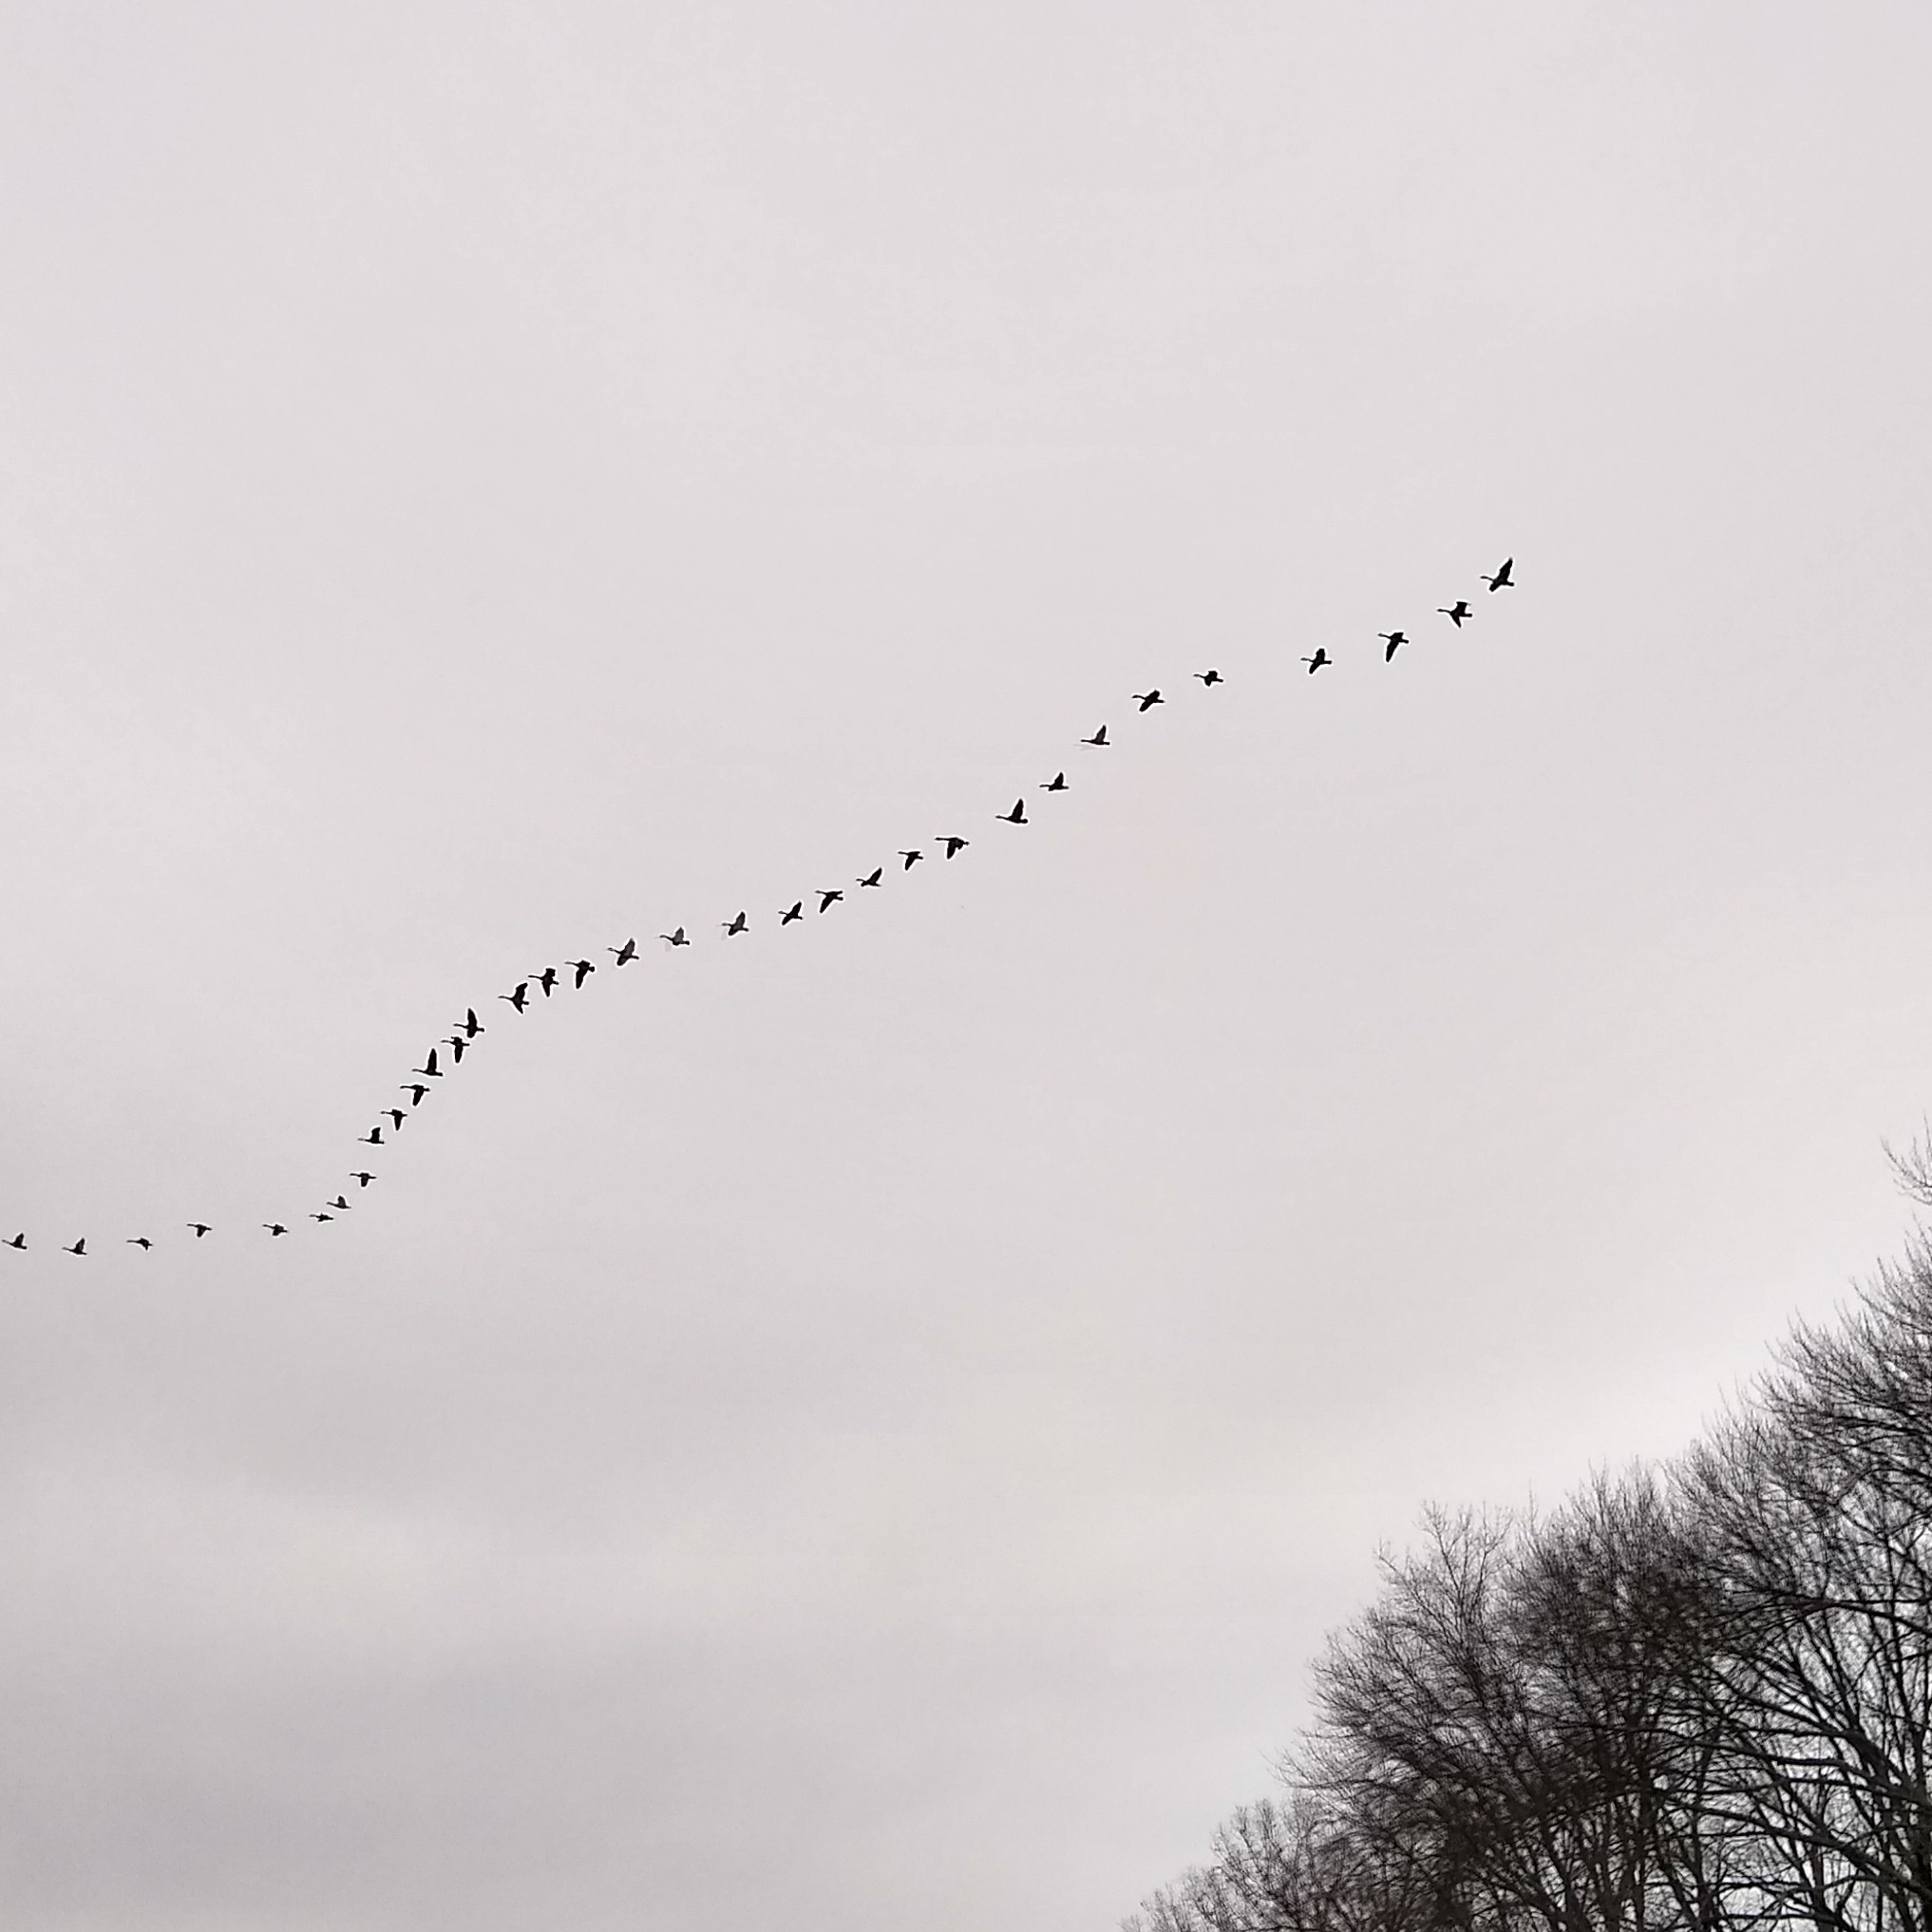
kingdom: Animalia
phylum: Chordata
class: Aves
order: Anseriformes
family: Anatidae
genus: Branta
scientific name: Branta canadensis
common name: Canada goose
